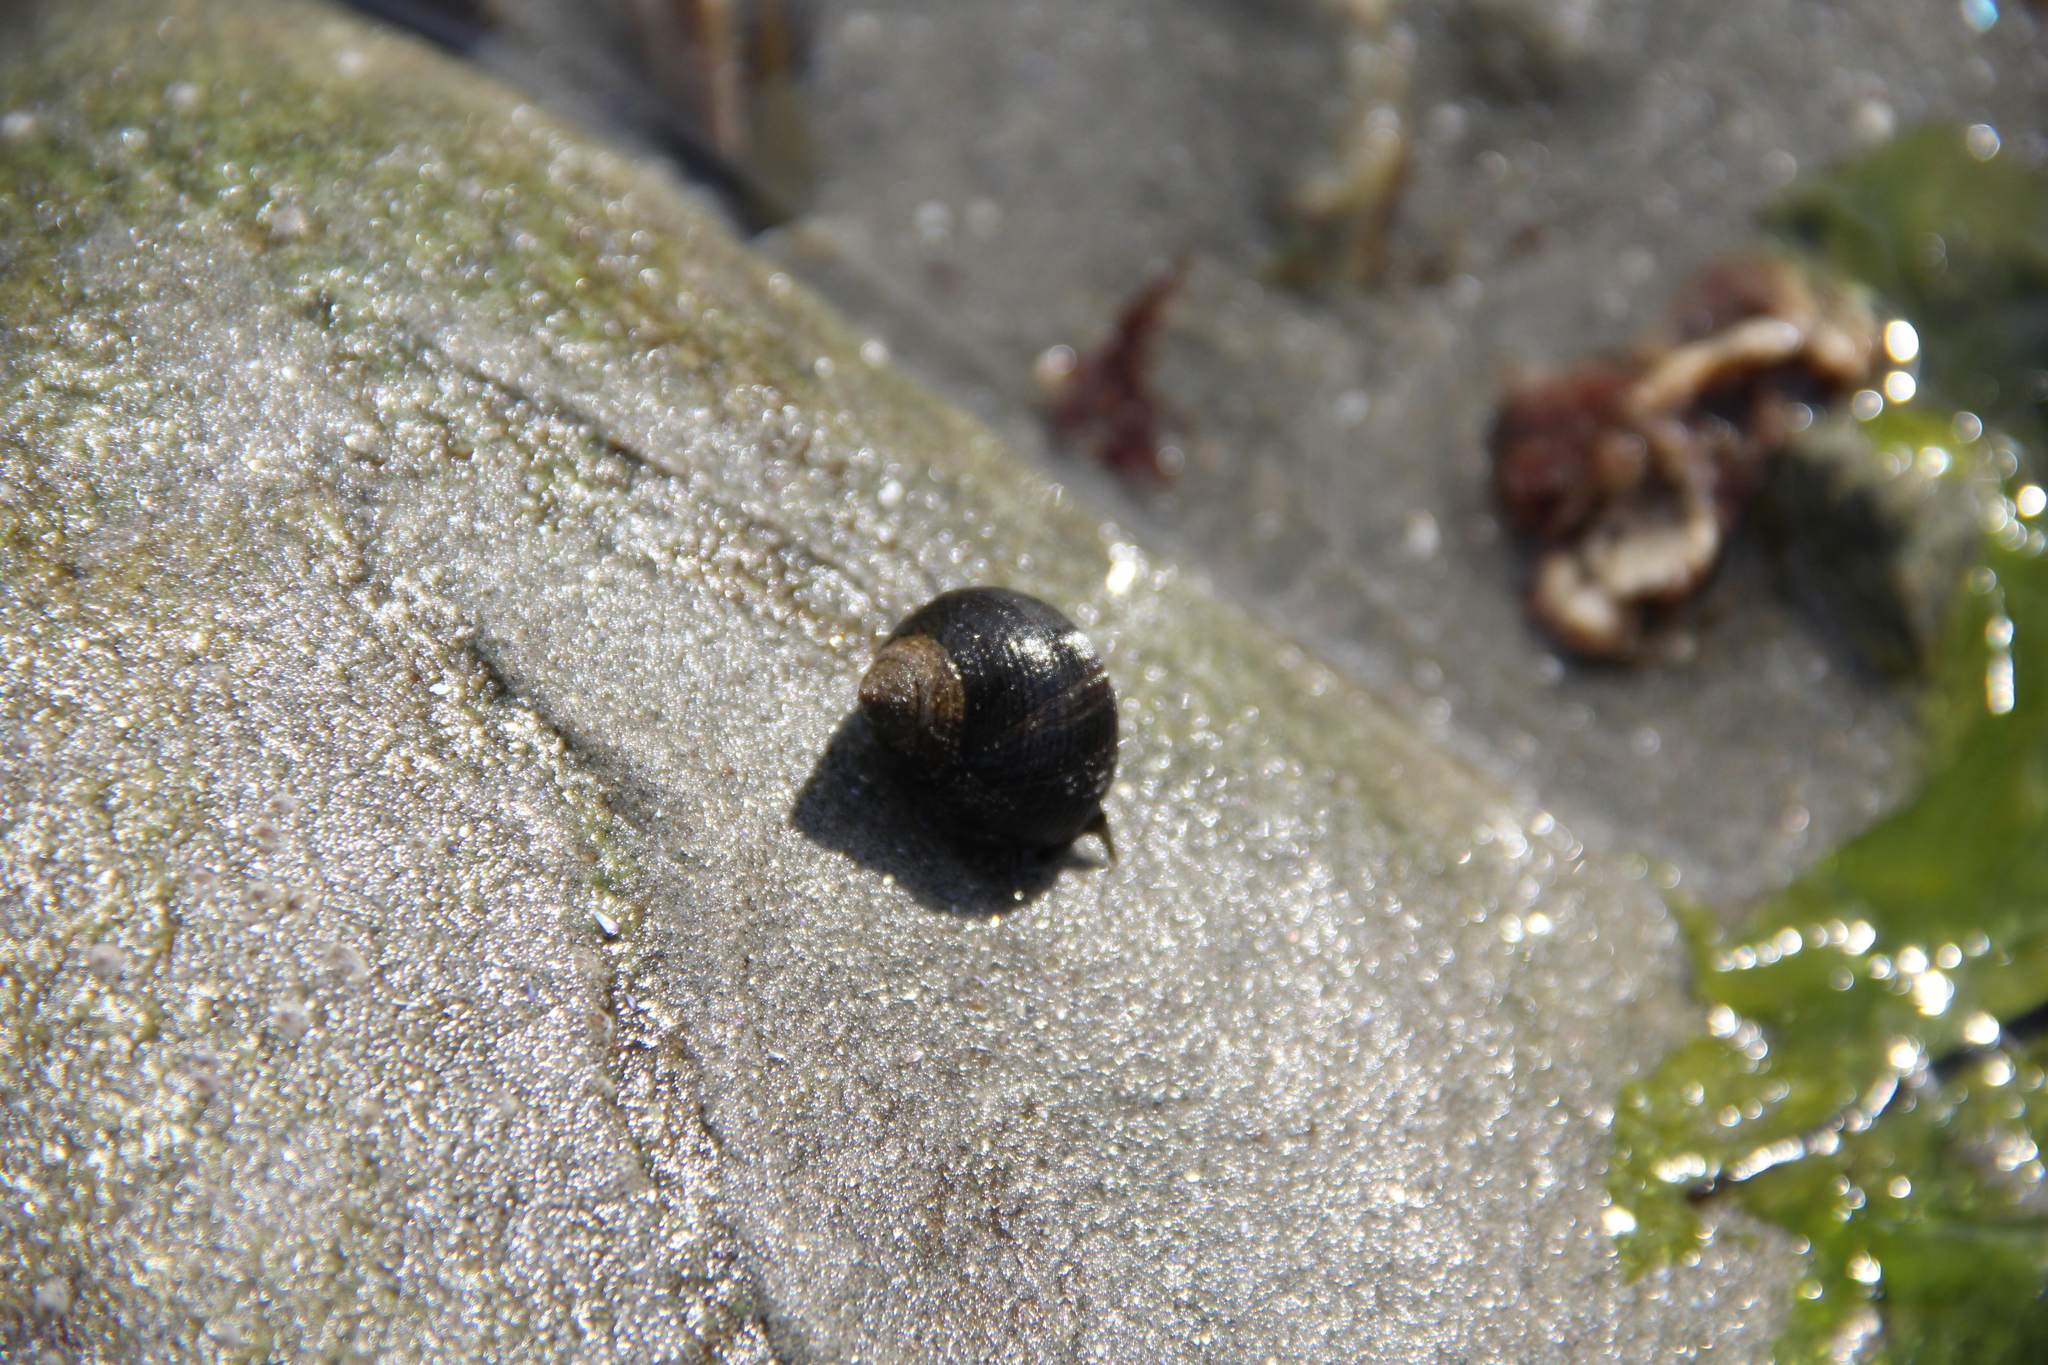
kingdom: Animalia
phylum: Mollusca
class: Gastropoda
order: Littorinimorpha
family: Littorinidae
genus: Littorina
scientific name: Littorina littorea
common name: Common periwinkle
